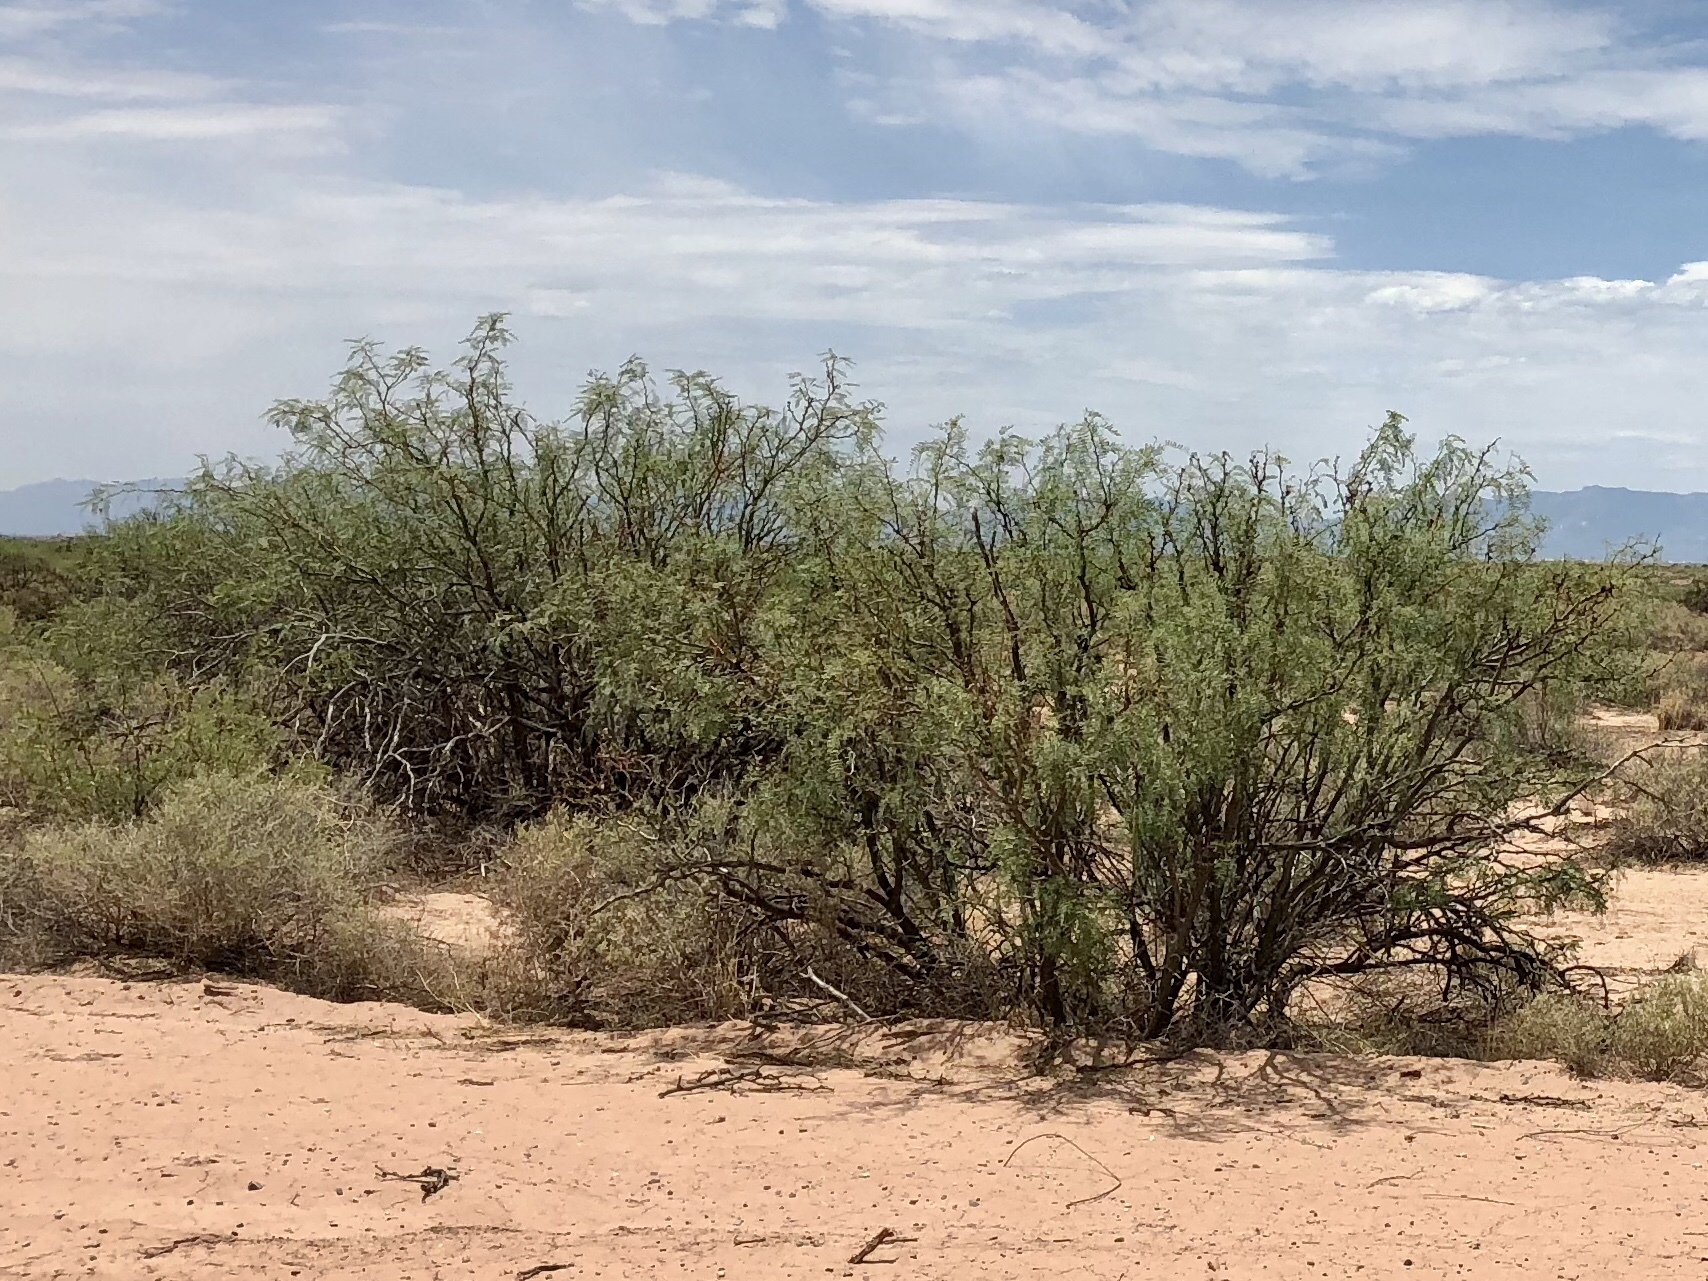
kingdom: Plantae
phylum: Tracheophyta
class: Magnoliopsida
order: Fabales
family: Fabaceae
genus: Prosopis
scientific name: Prosopis glandulosa
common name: Honey mesquite
